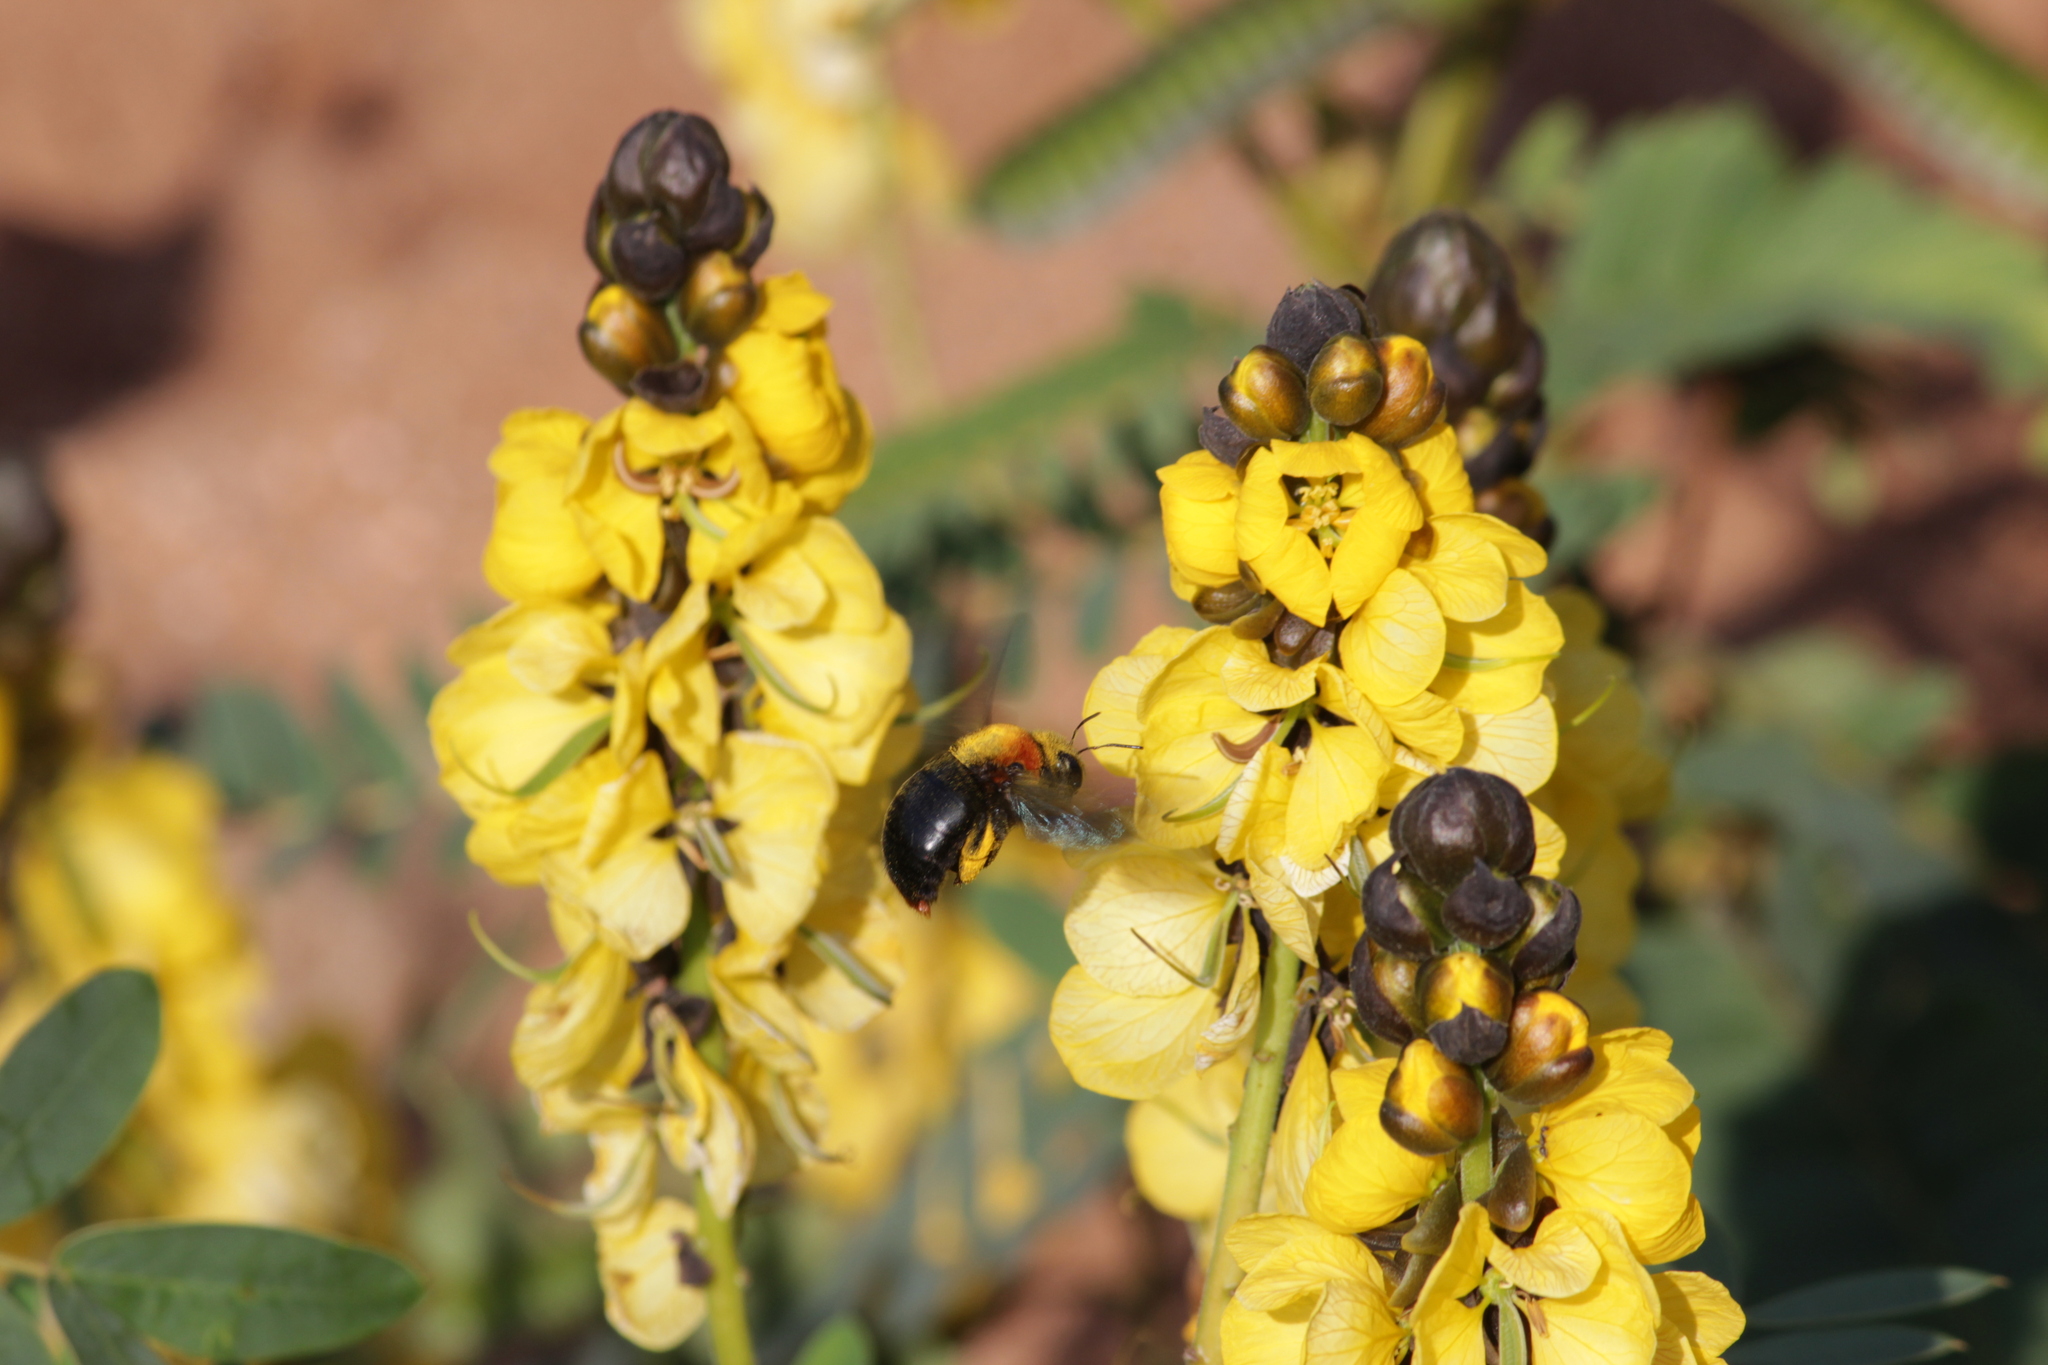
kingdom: Animalia
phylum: Arthropoda
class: Insecta
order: Hymenoptera
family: Apidae
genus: Xylocopa
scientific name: Xylocopa flavorufa
